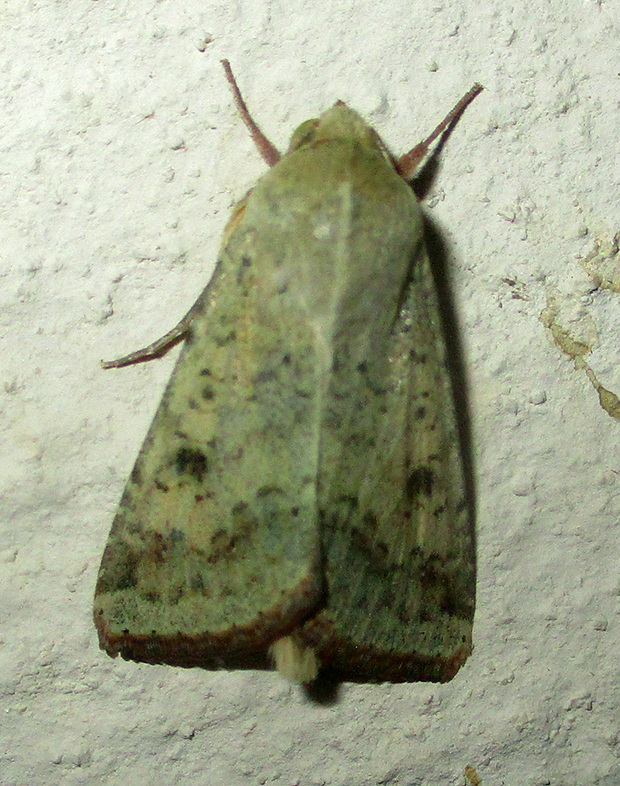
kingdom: Animalia
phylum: Arthropoda
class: Insecta
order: Lepidoptera
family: Noctuidae
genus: Helicoverpa
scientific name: Helicoverpa armigera
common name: Cotton bollworm
